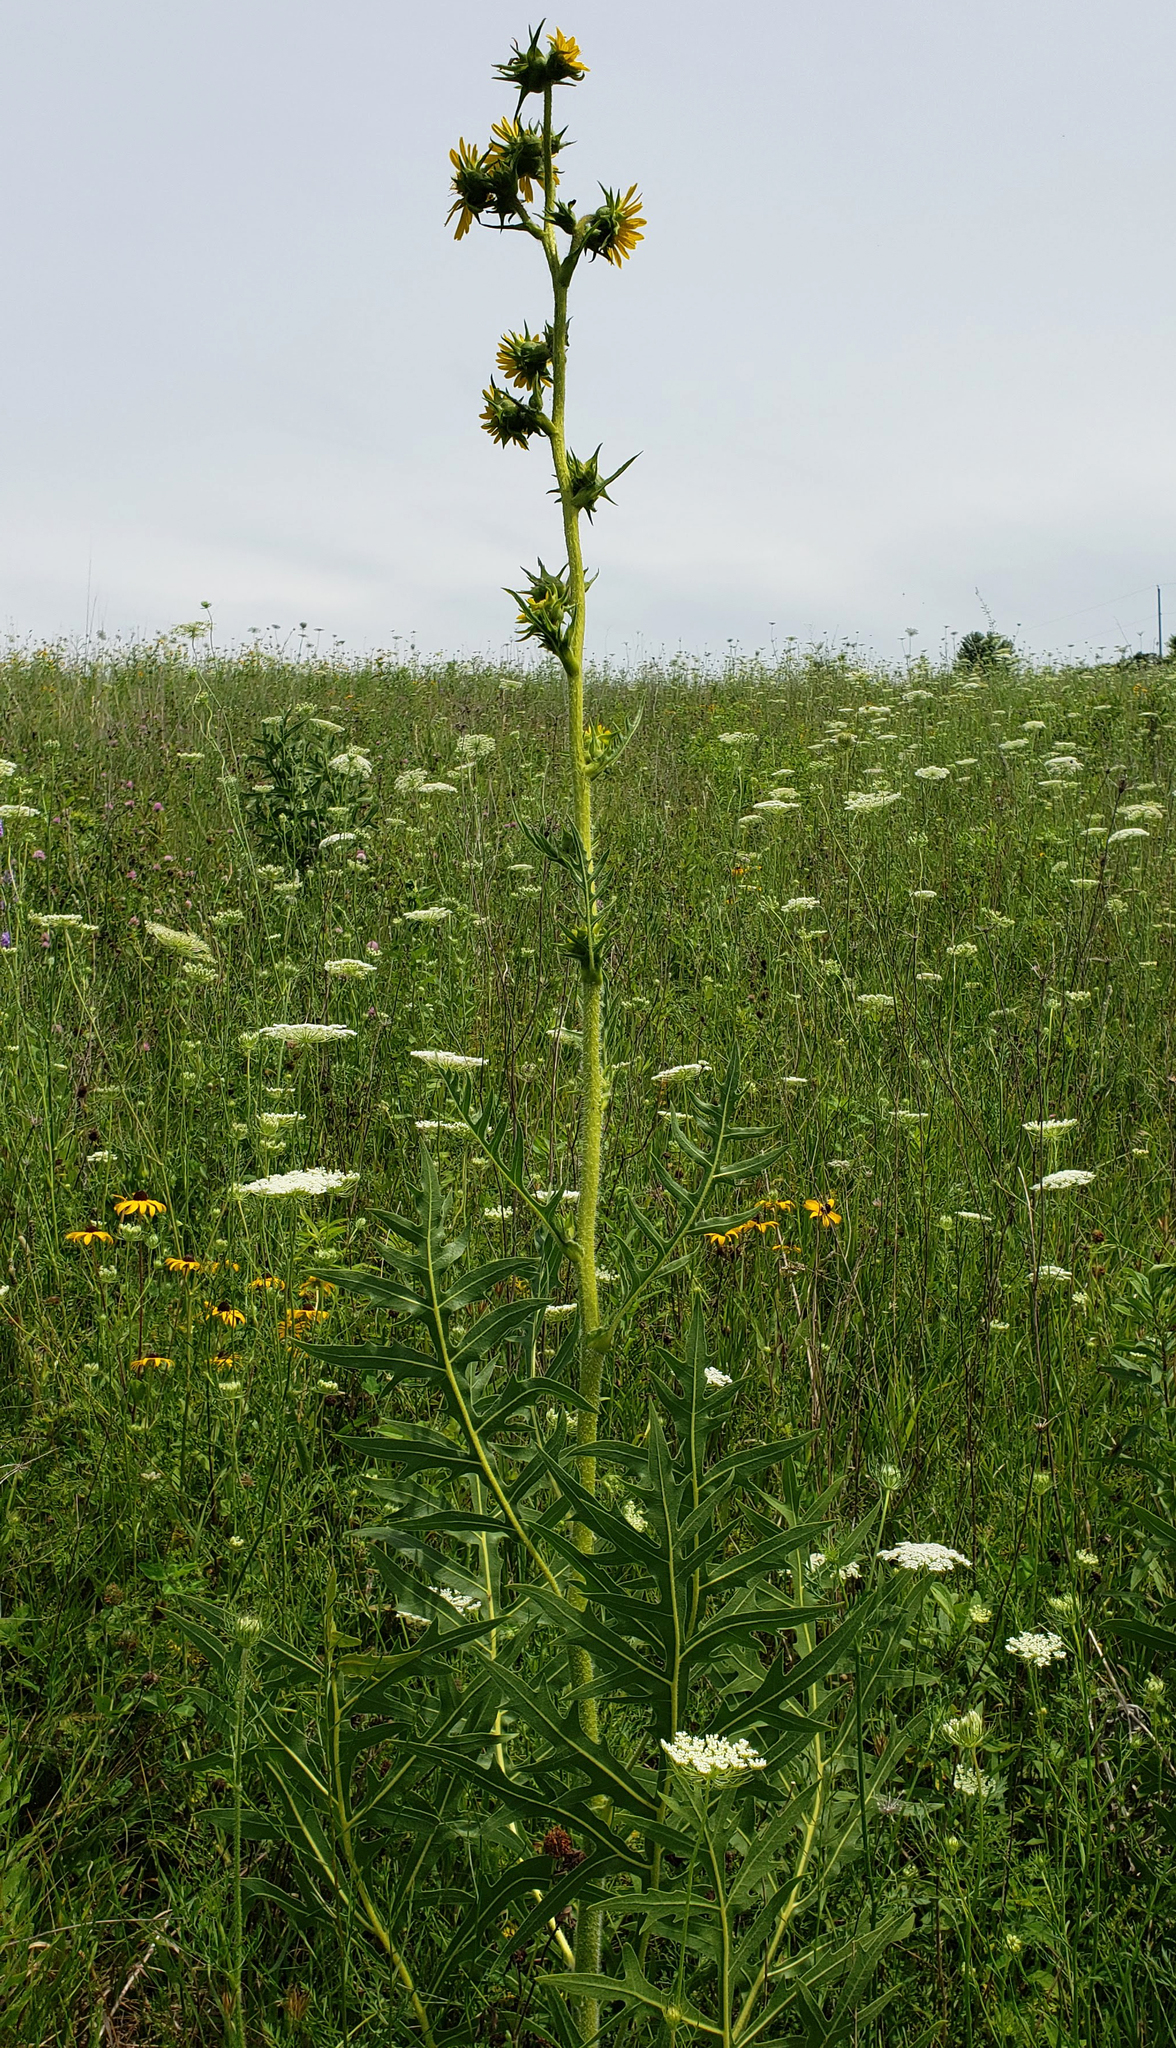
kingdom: Plantae
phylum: Tracheophyta
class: Magnoliopsida
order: Asterales
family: Asteraceae
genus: Silphium
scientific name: Silphium laciniatum
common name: Polarplant
